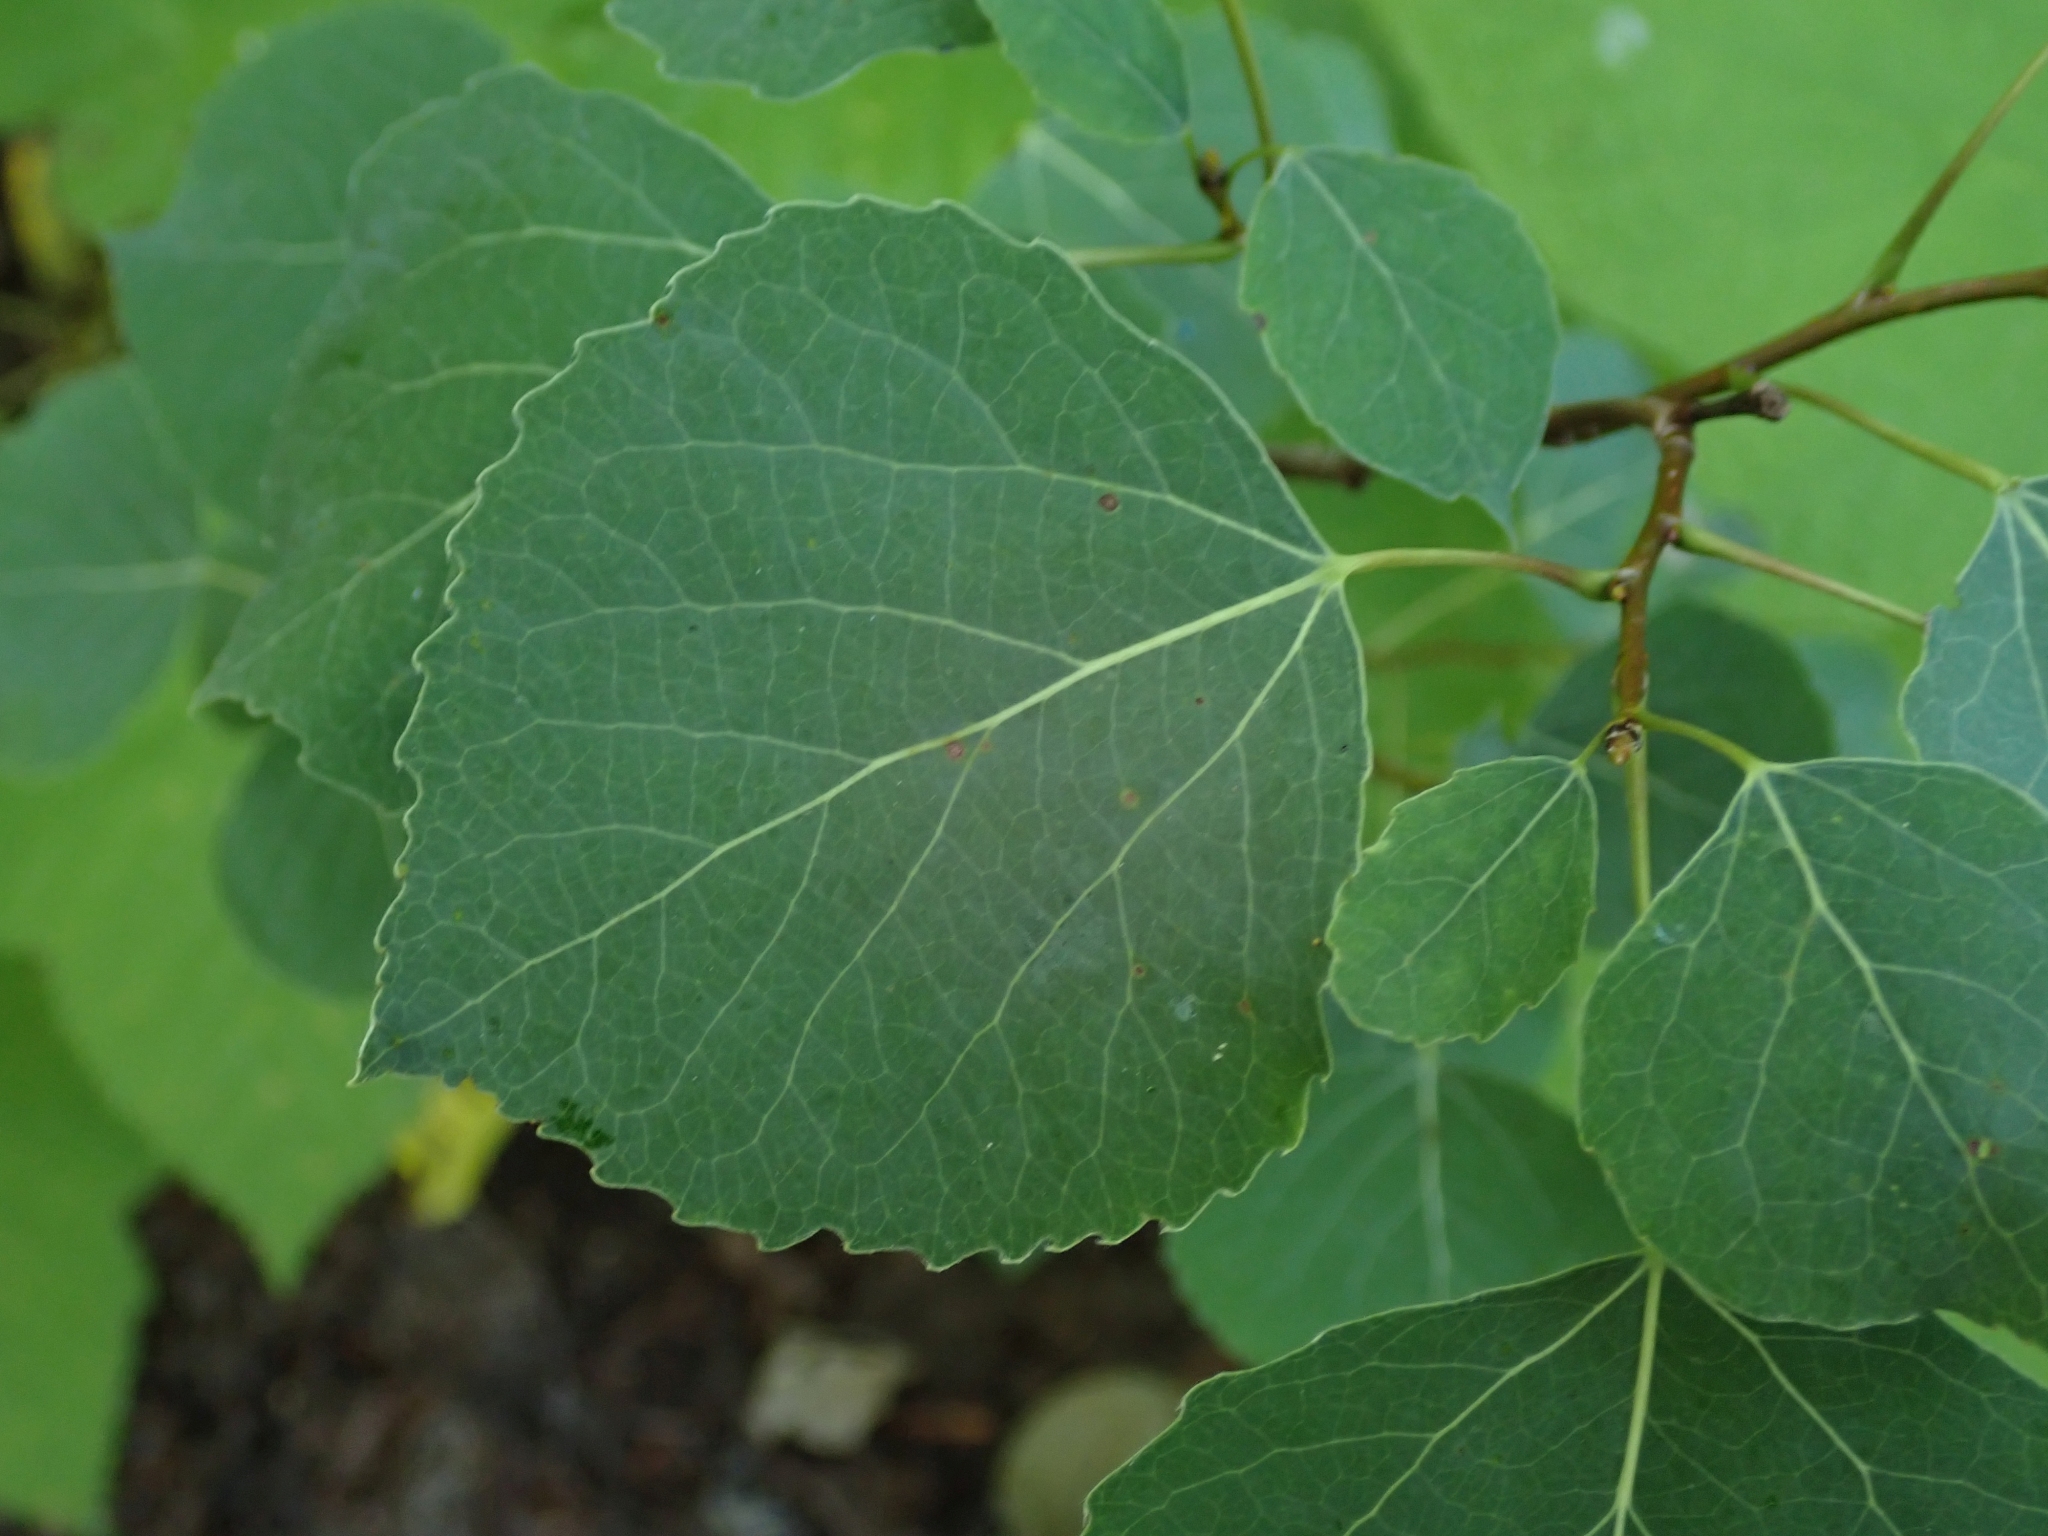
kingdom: Plantae
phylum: Tracheophyta
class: Magnoliopsida
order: Malpighiales
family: Salicaceae
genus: Populus
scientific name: Populus tremuloides
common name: Quaking aspen
